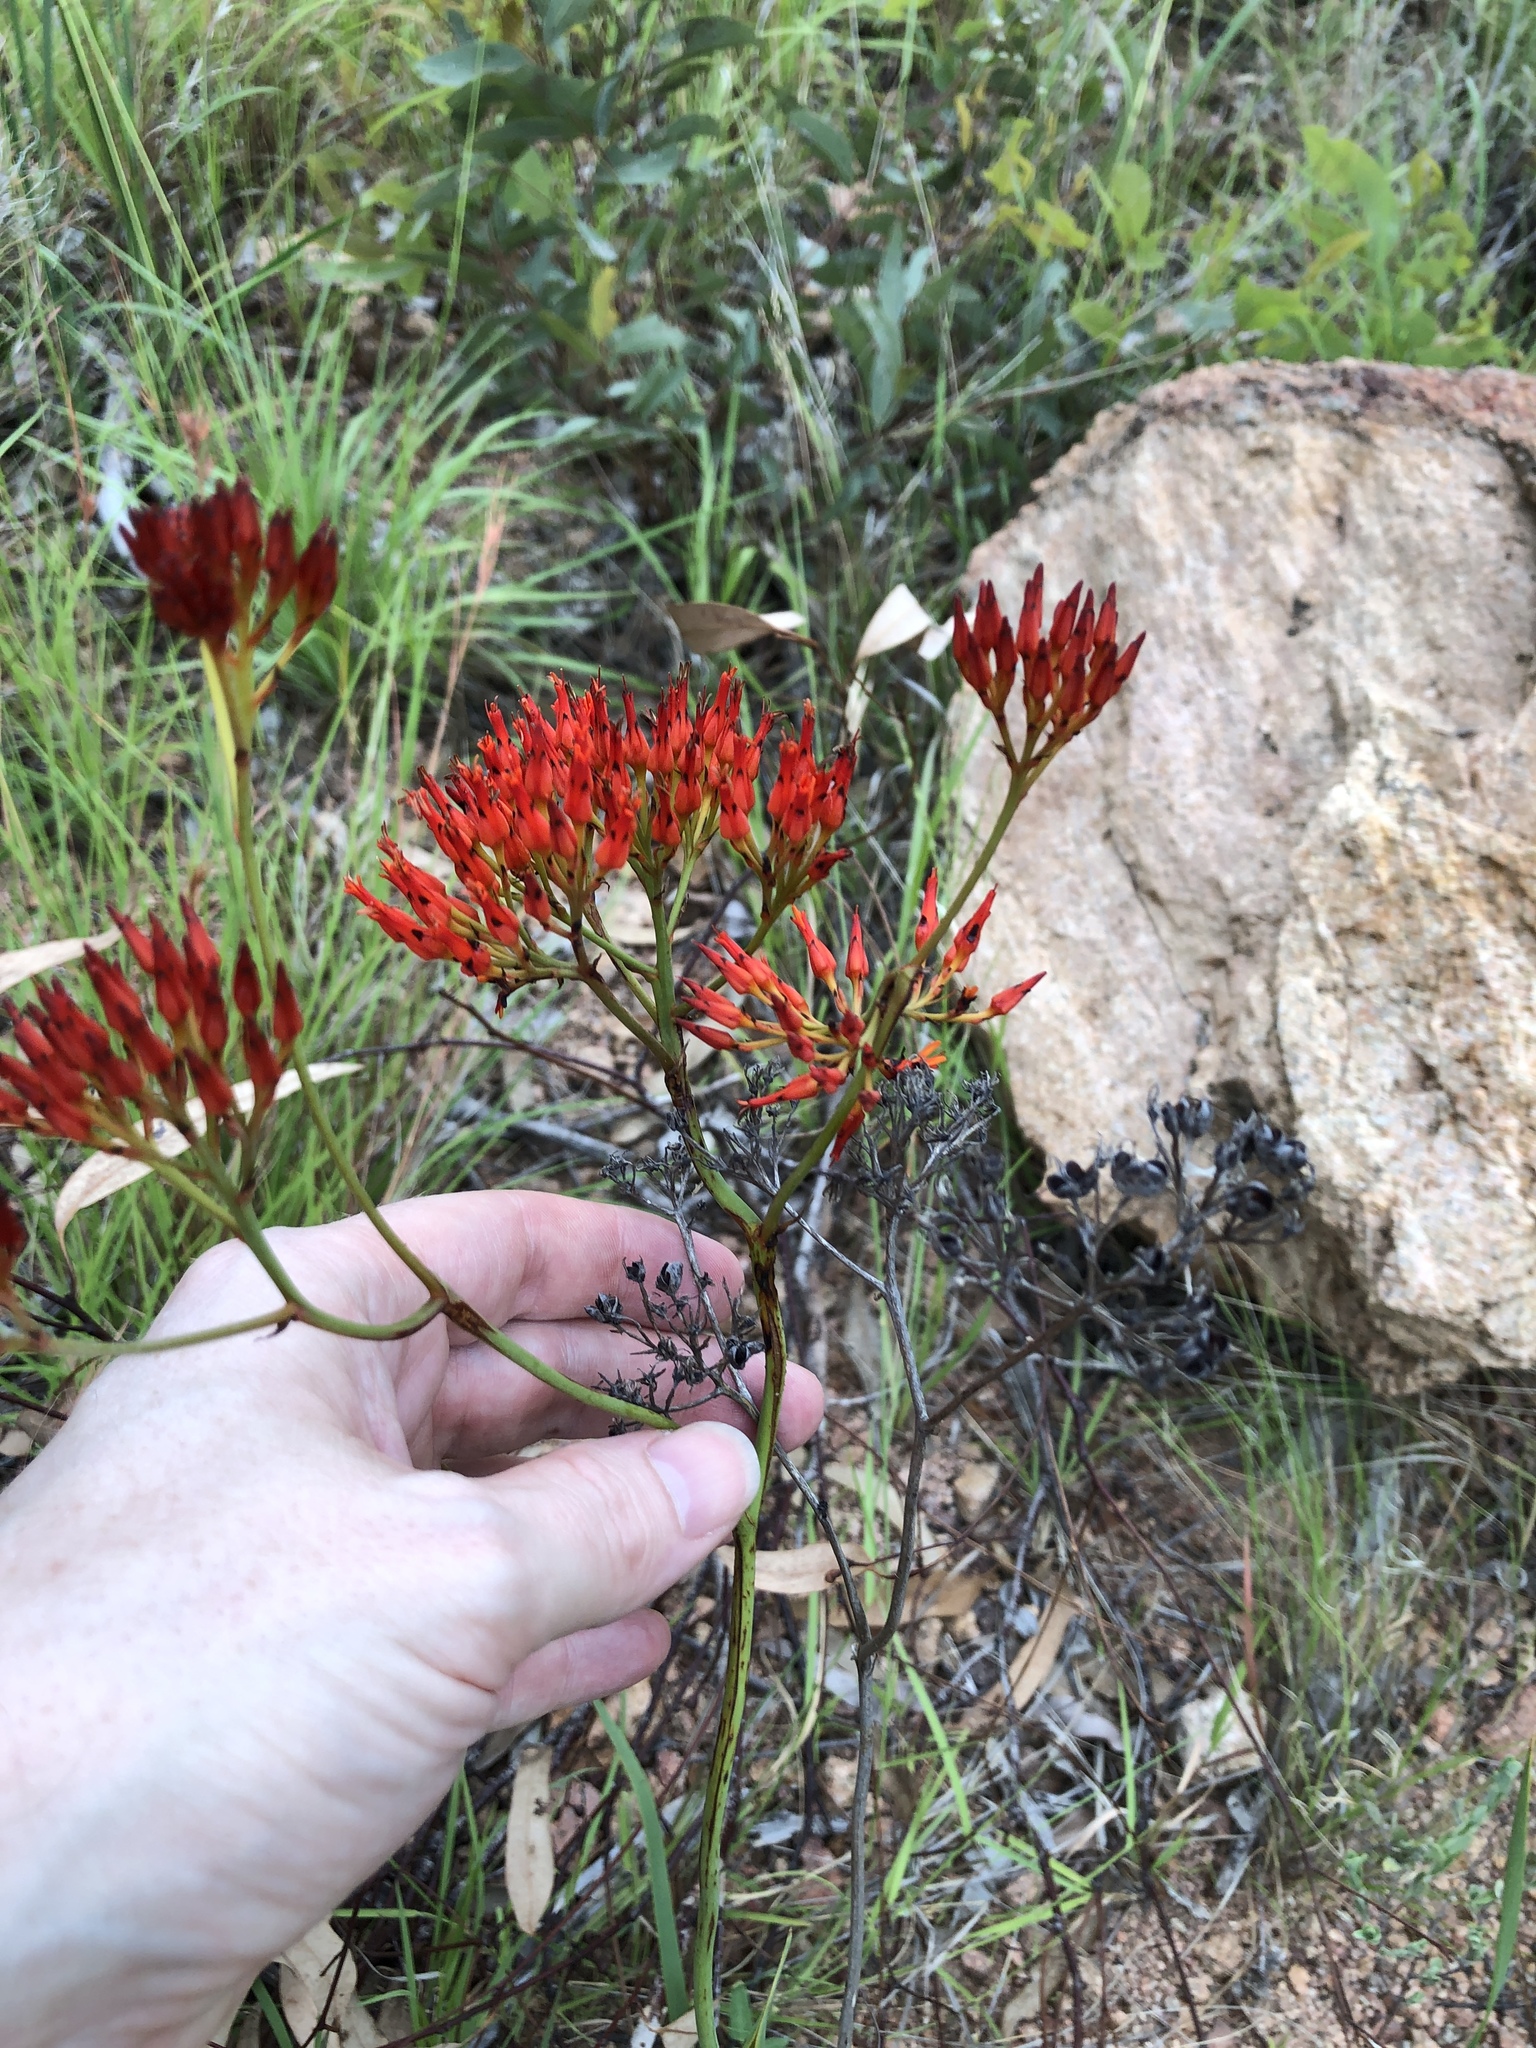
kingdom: Plantae
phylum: Tracheophyta
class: Liliopsida
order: Commelinales
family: Haemodoraceae
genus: Haemodorum
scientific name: Haemodorum coccineum
